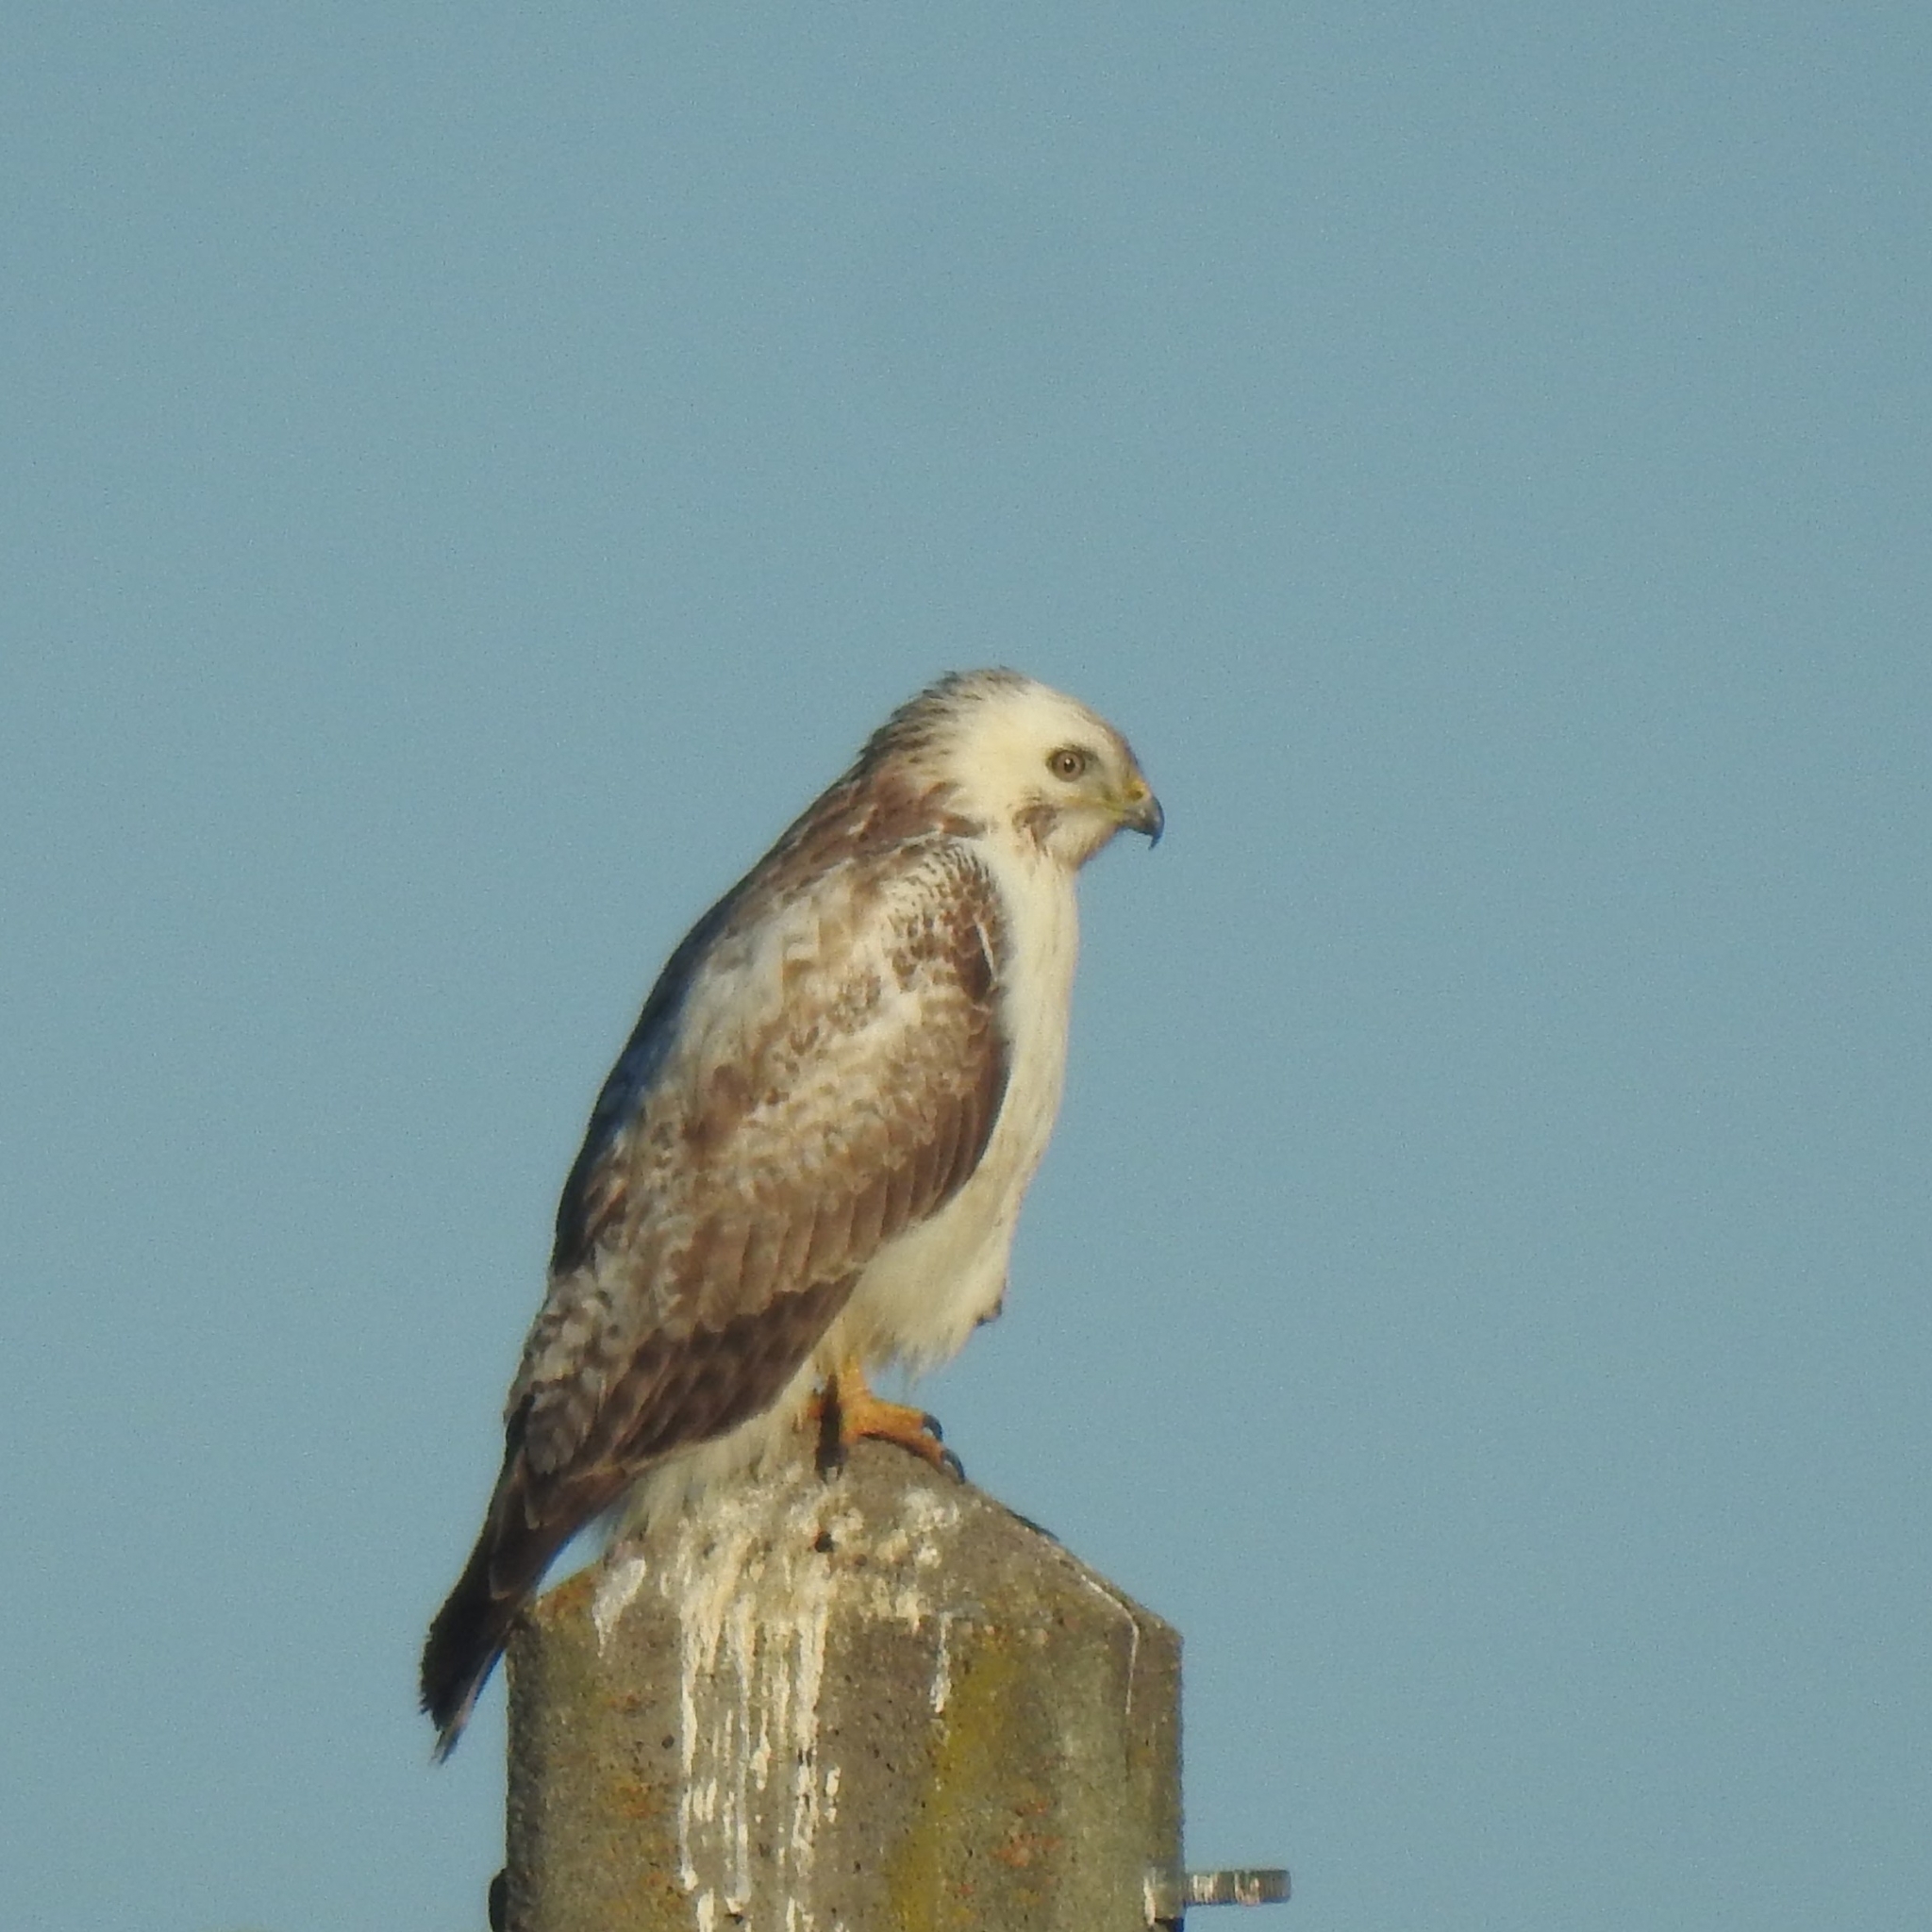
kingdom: Animalia
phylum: Chordata
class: Aves
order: Accipitriformes
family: Accipitridae
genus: Buteo
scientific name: Buteo buteo
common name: Common buzzard
